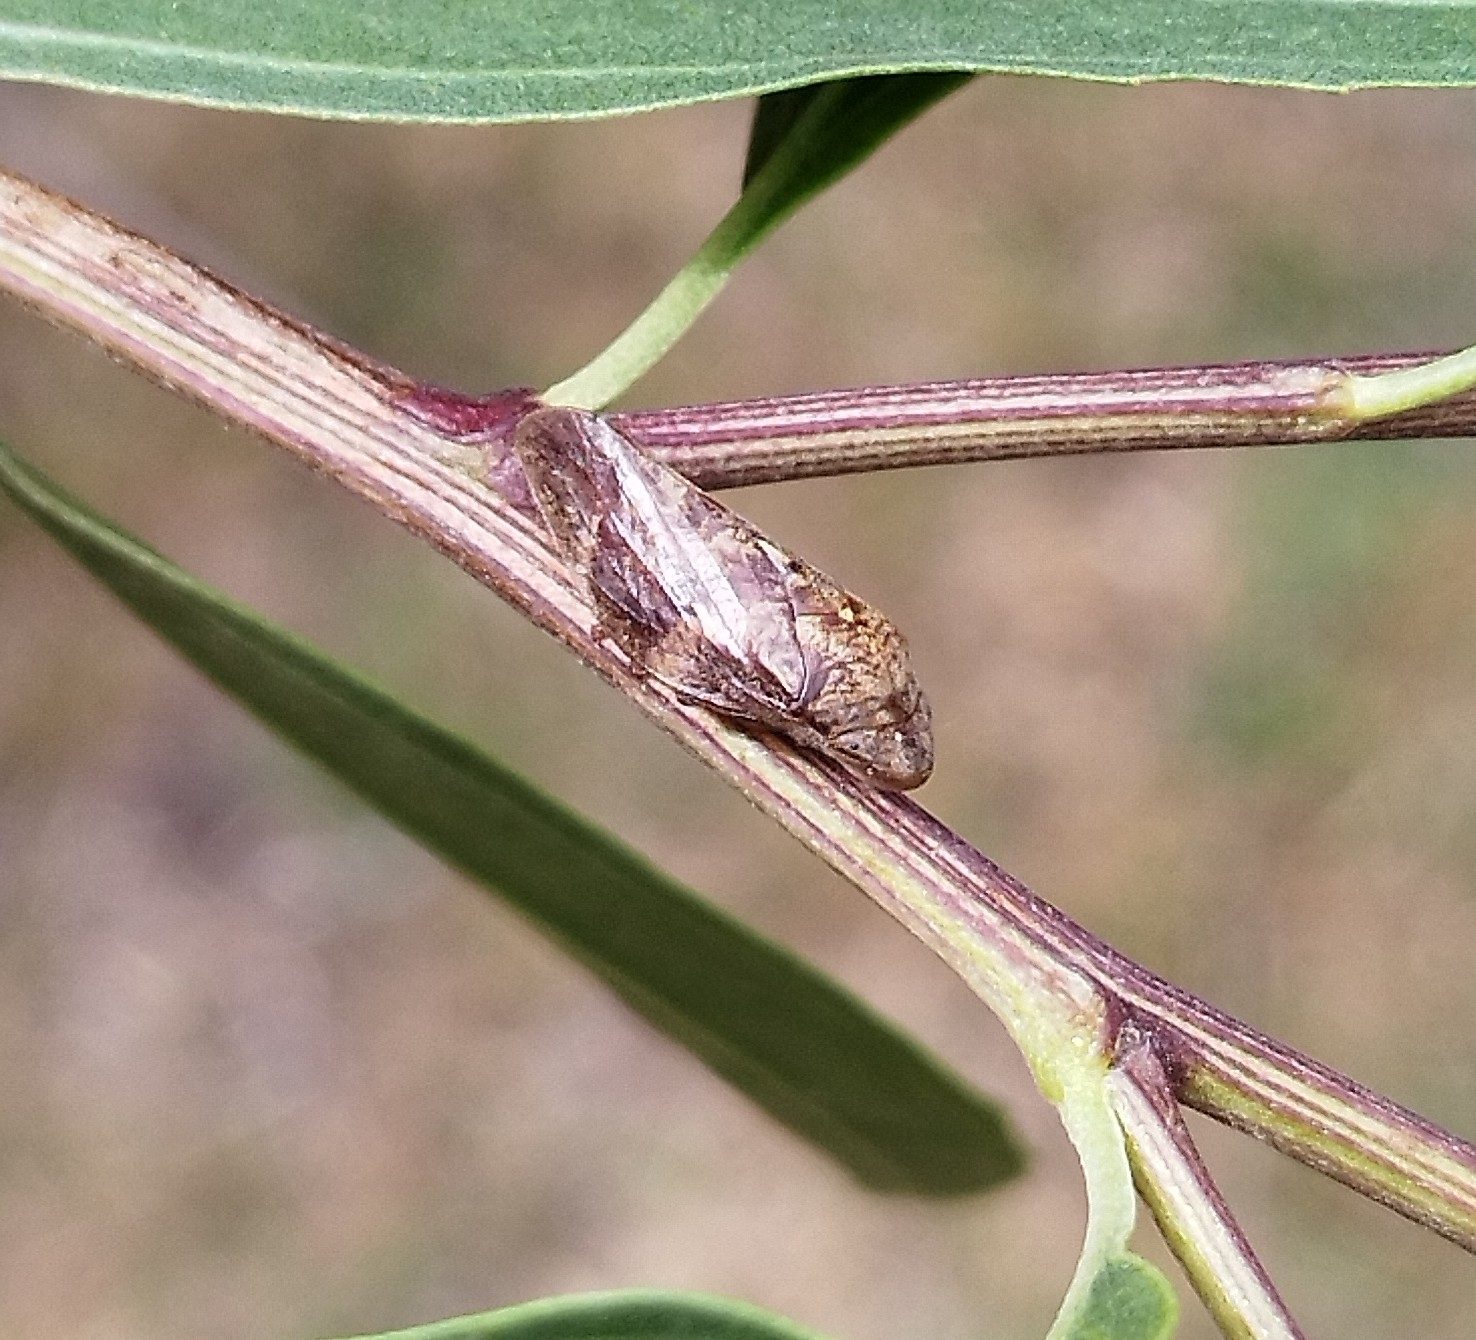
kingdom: Animalia
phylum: Arthropoda
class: Insecta
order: Hemiptera
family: Aphrophoridae
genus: Cephisus
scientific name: Cephisus siccifolius
